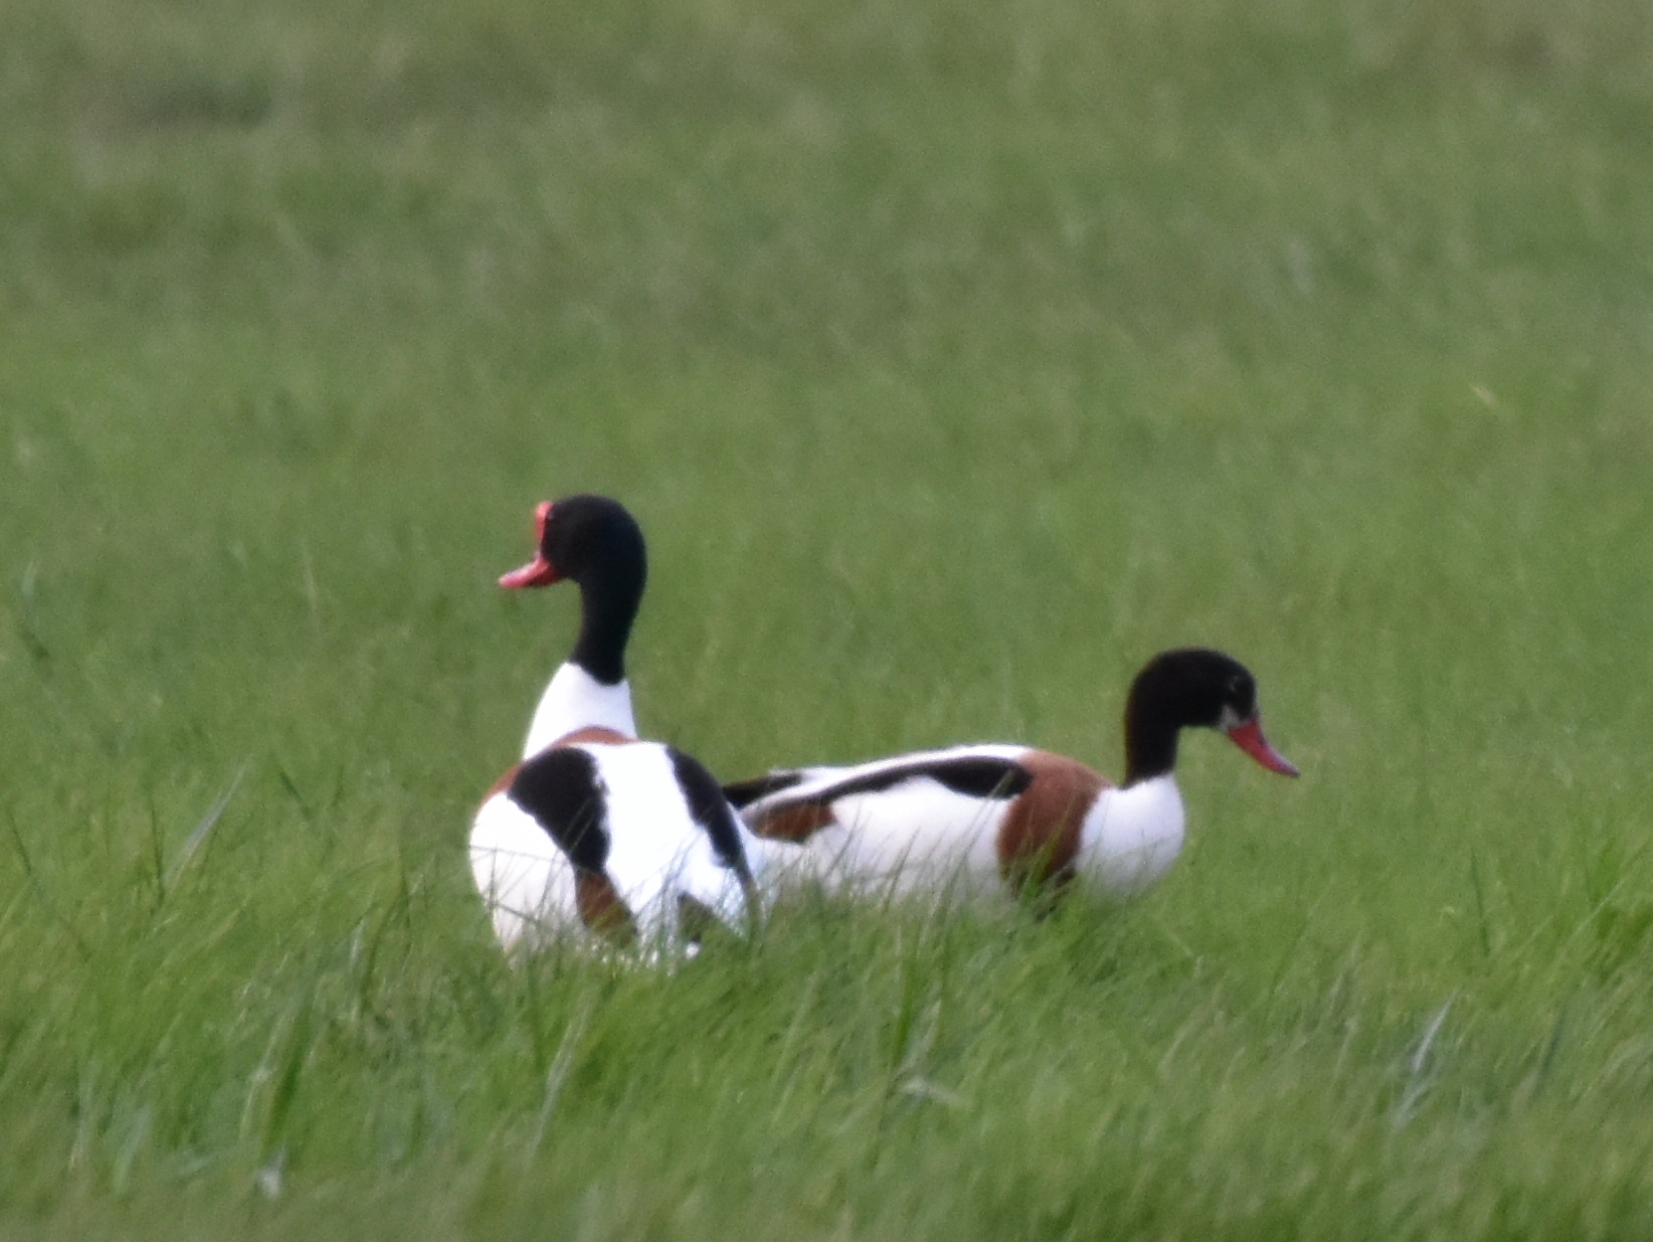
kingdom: Animalia
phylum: Chordata
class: Aves
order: Anseriformes
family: Anatidae
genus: Tadorna
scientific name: Tadorna tadorna
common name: Common shelduck
